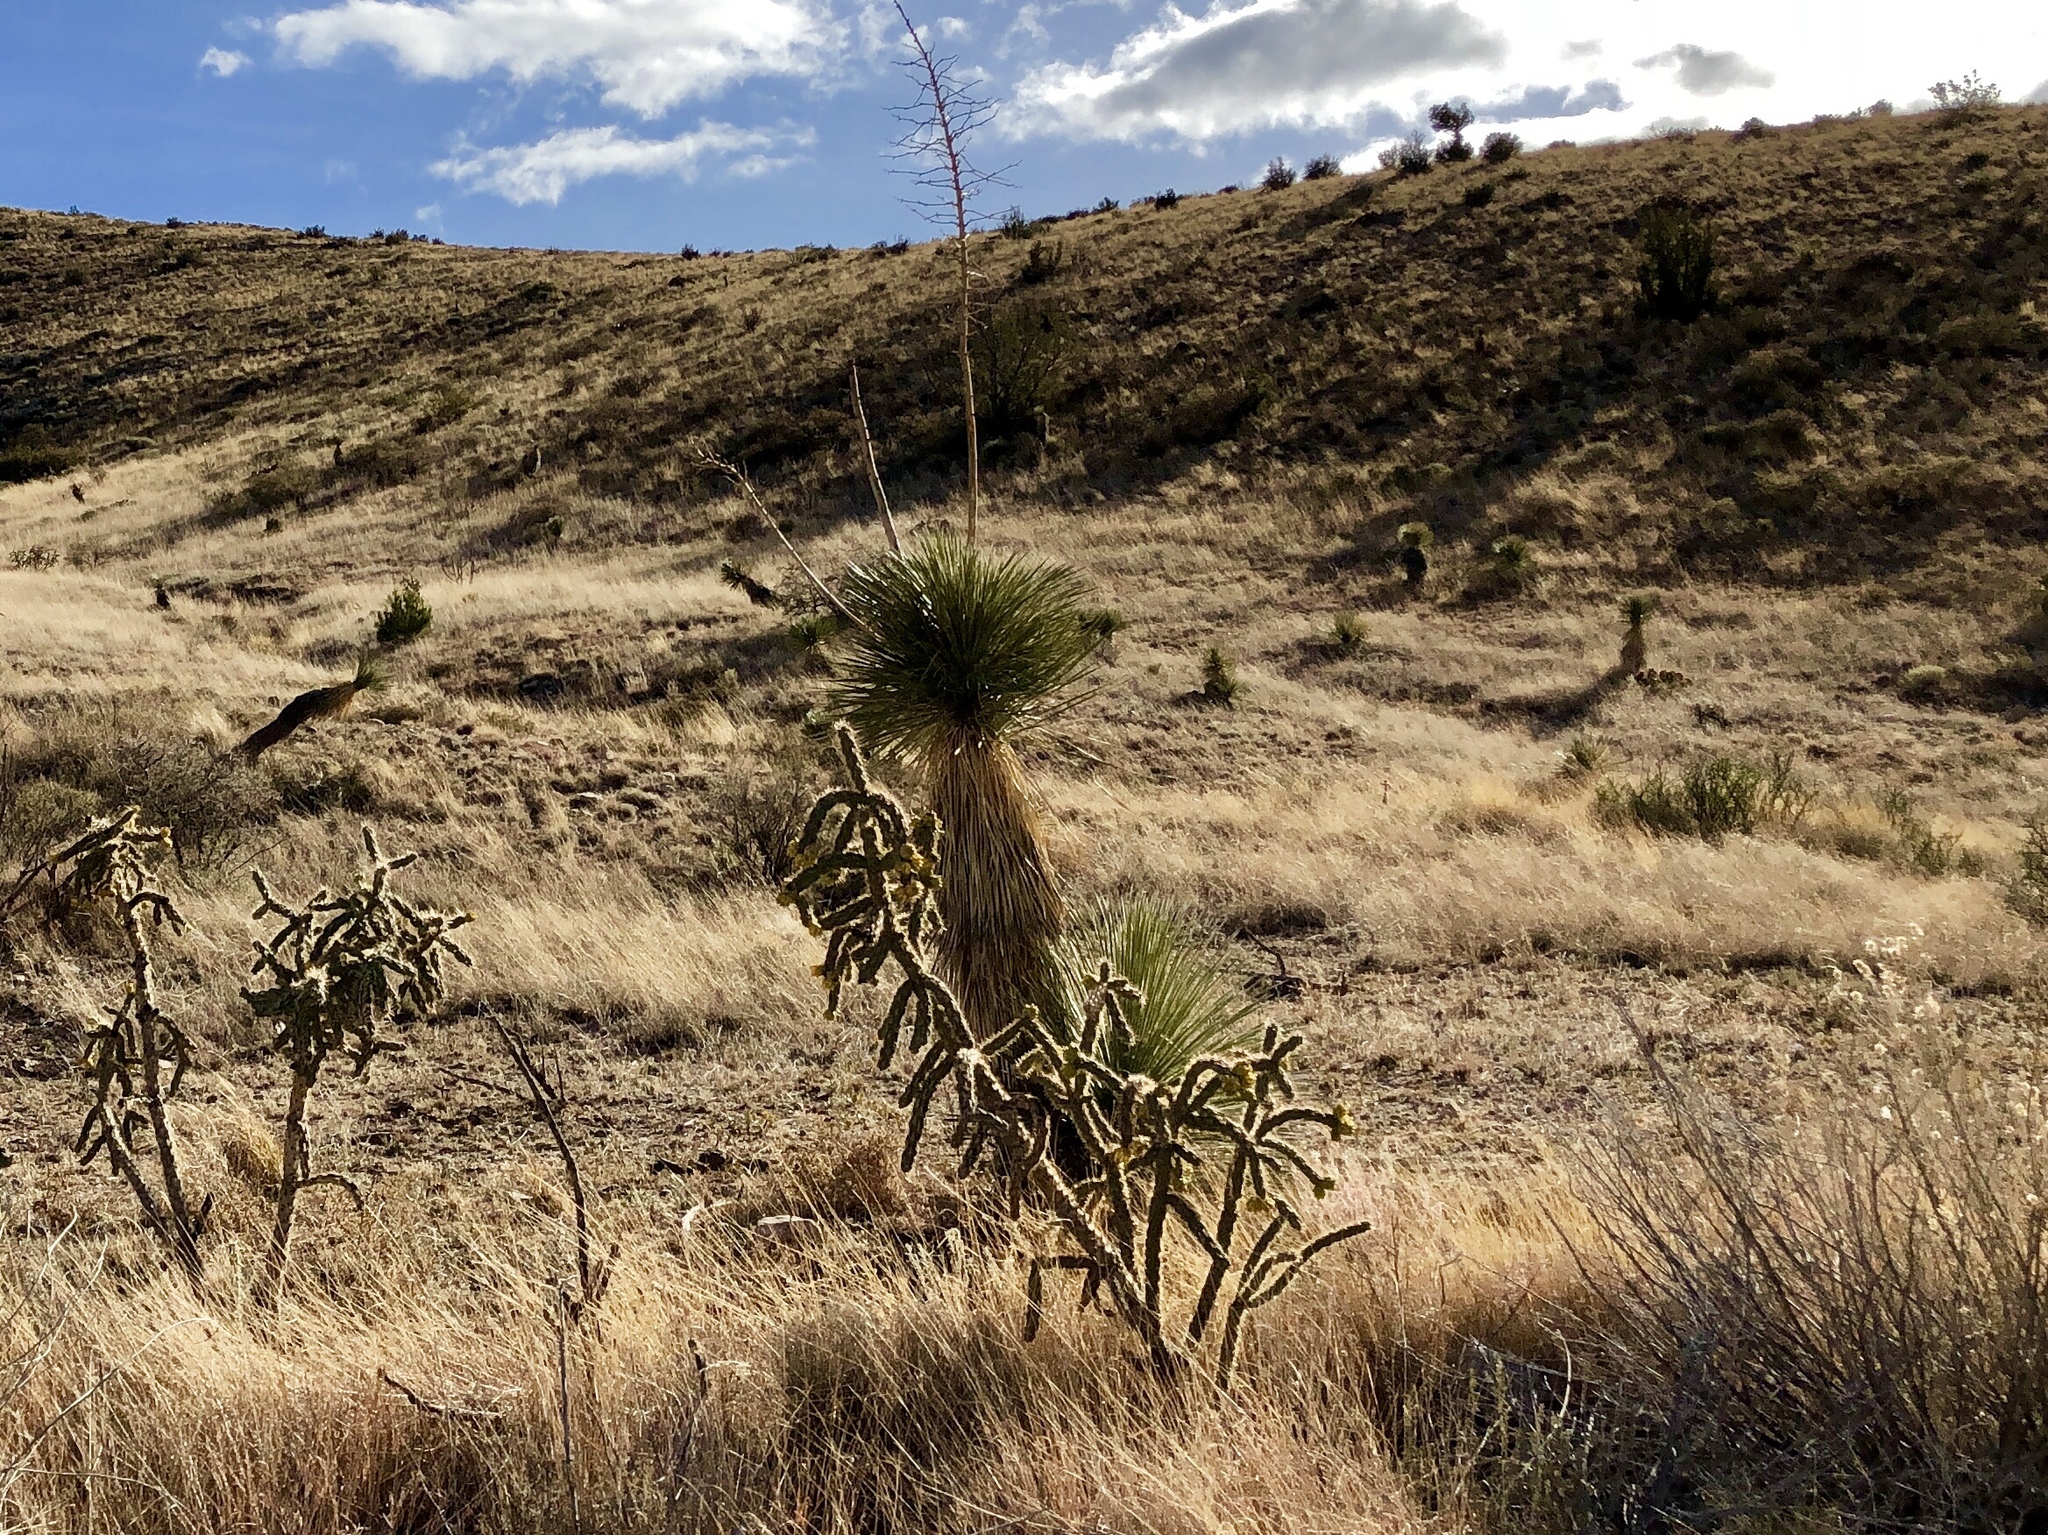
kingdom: Plantae
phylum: Tracheophyta
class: Liliopsida
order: Asparagales
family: Asparagaceae
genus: Yucca
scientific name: Yucca elata
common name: Palmella
